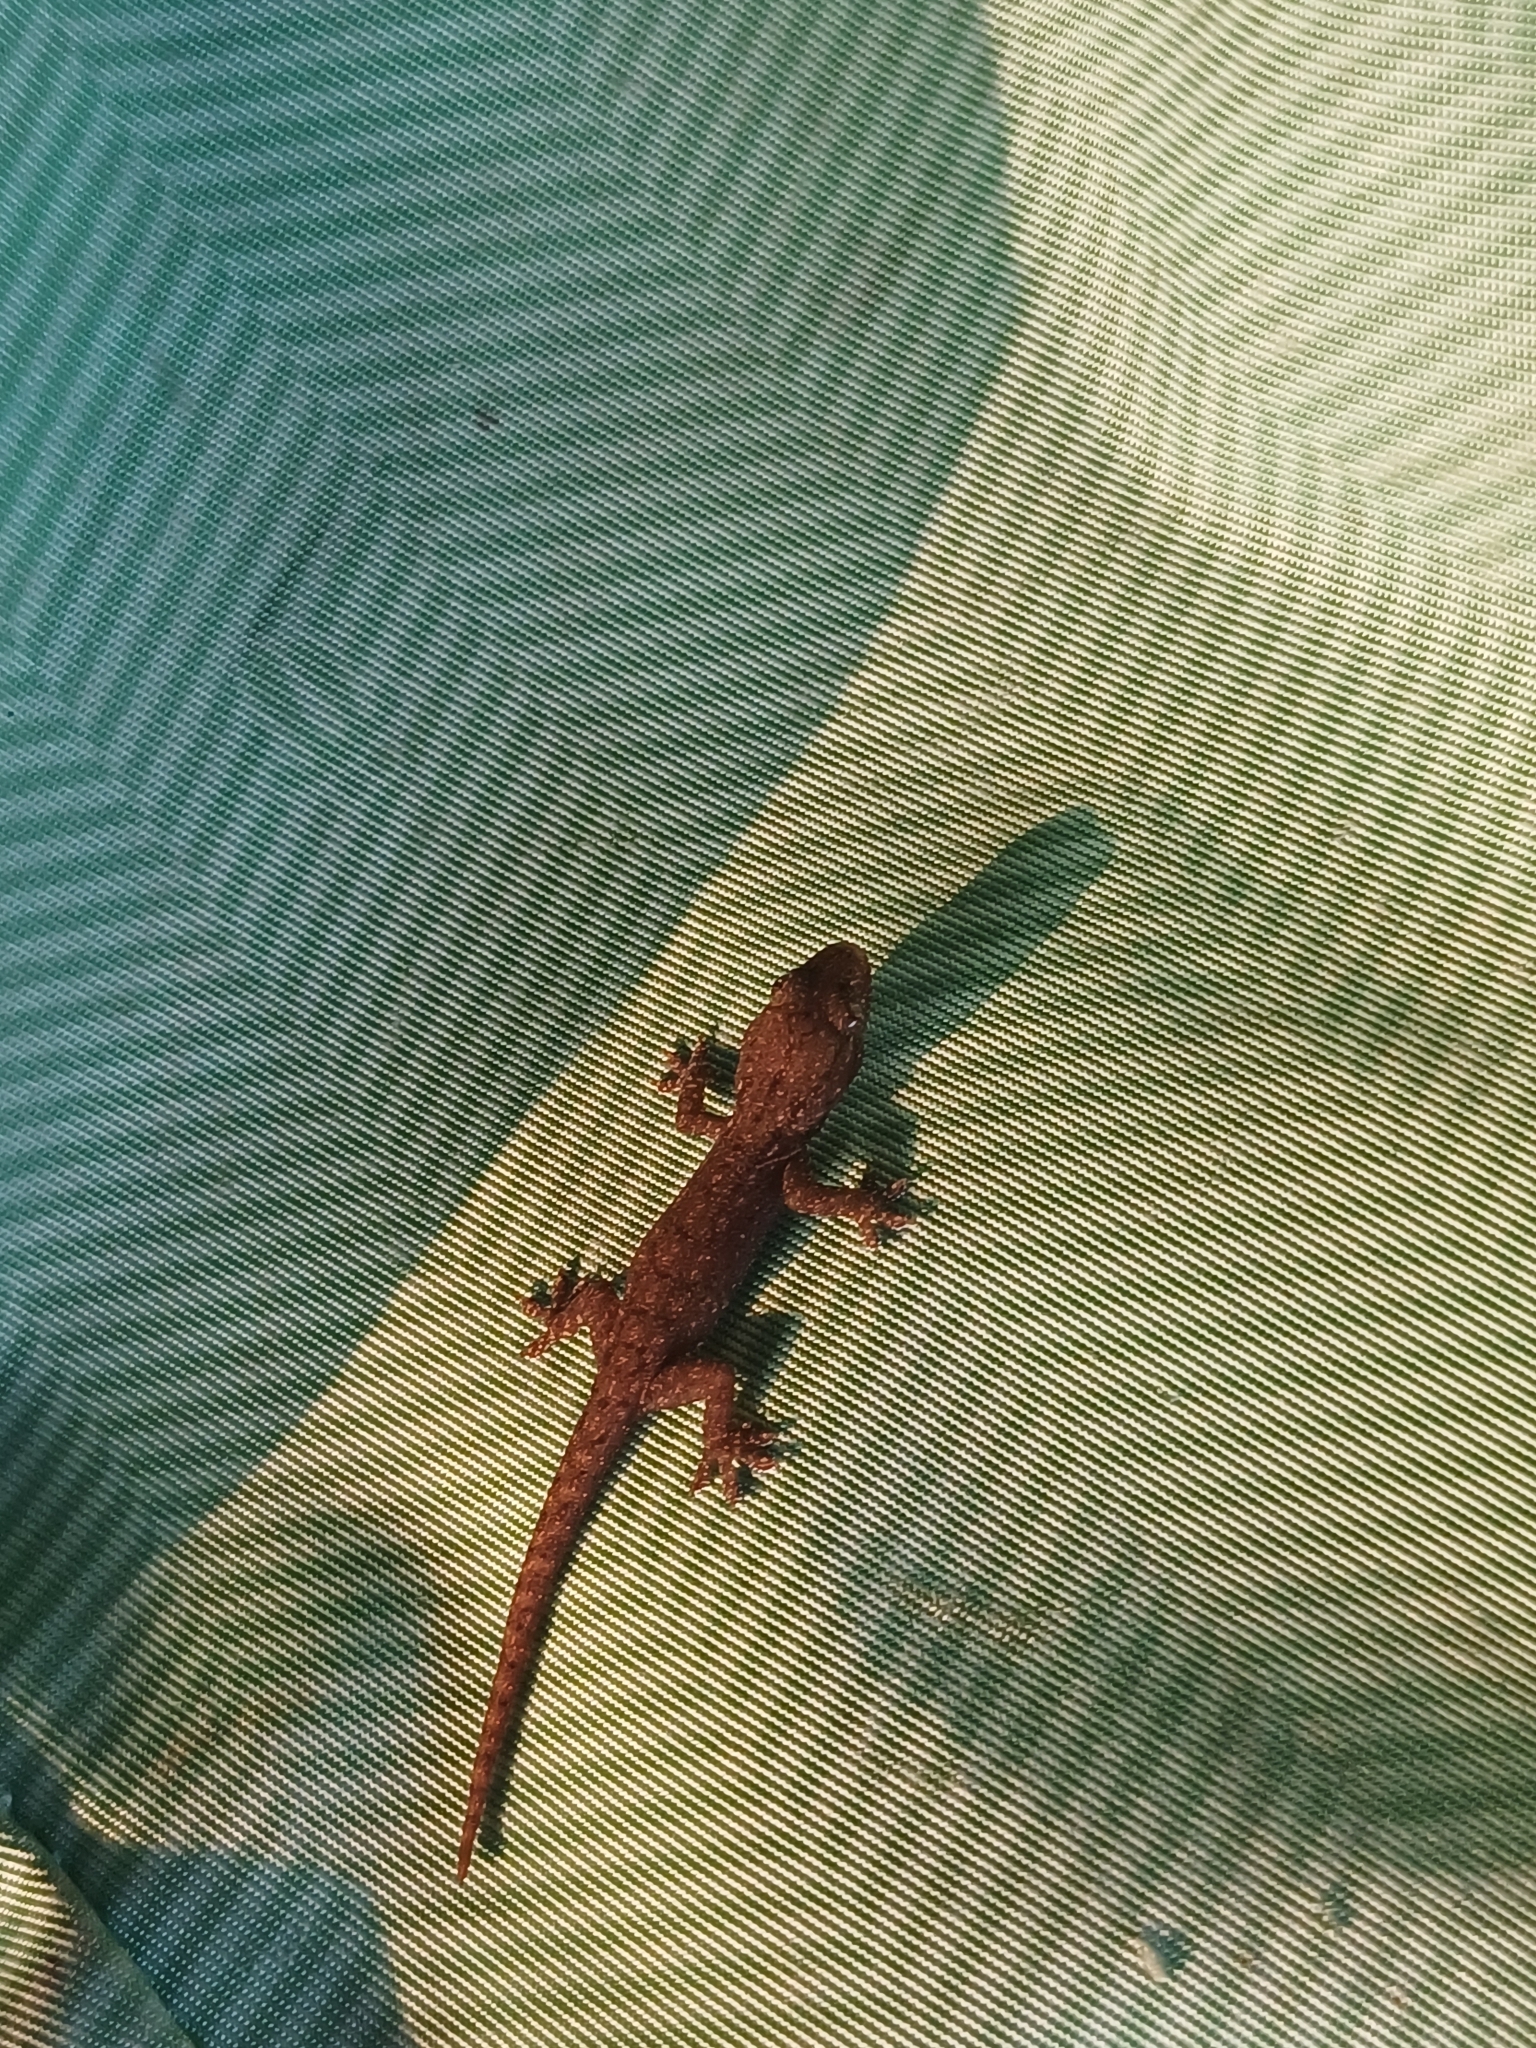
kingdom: Animalia
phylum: Chordata
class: Squamata
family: Gekkonidae
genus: Hemidactylus
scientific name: Hemidactylus frenatus
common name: Common house gecko
